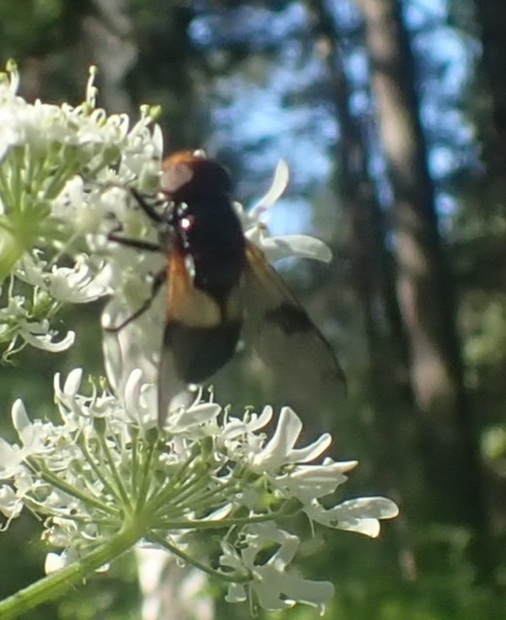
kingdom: Animalia
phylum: Arthropoda
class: Insecta
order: Diptera
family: Syrphidae
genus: Volucella
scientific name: Volucella pellucens
